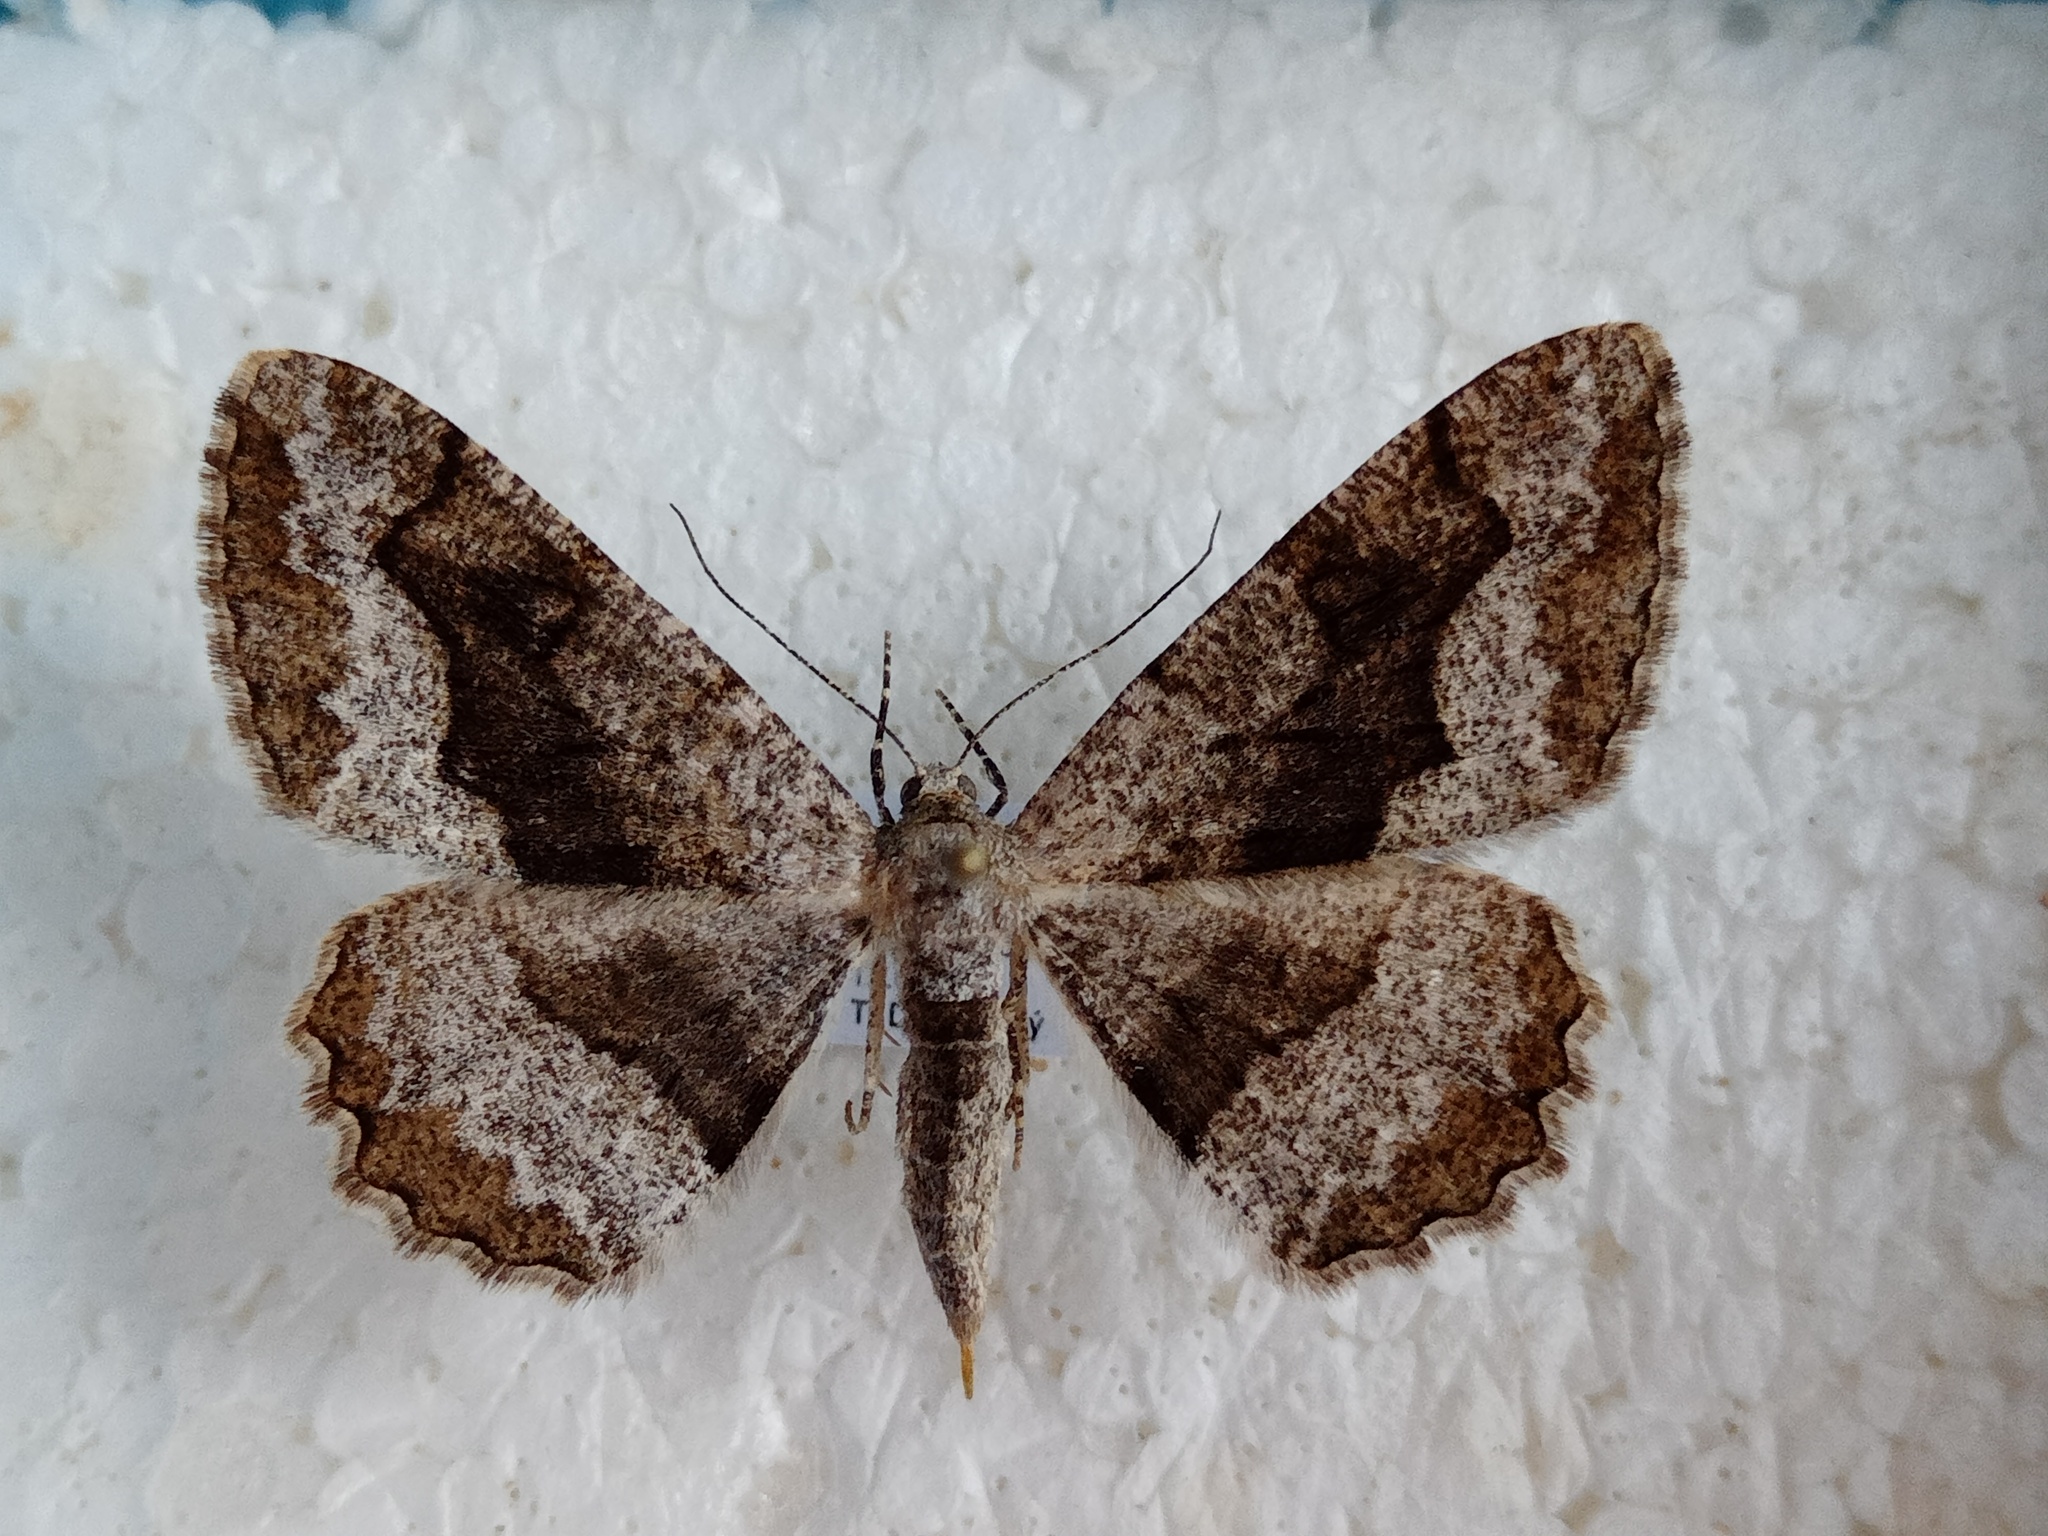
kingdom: Animalia
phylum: Arthropoda
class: Insecta
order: Lepidoptera
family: Geometridae
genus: Alcis
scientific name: Alcis repandata
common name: Mottled beauty
